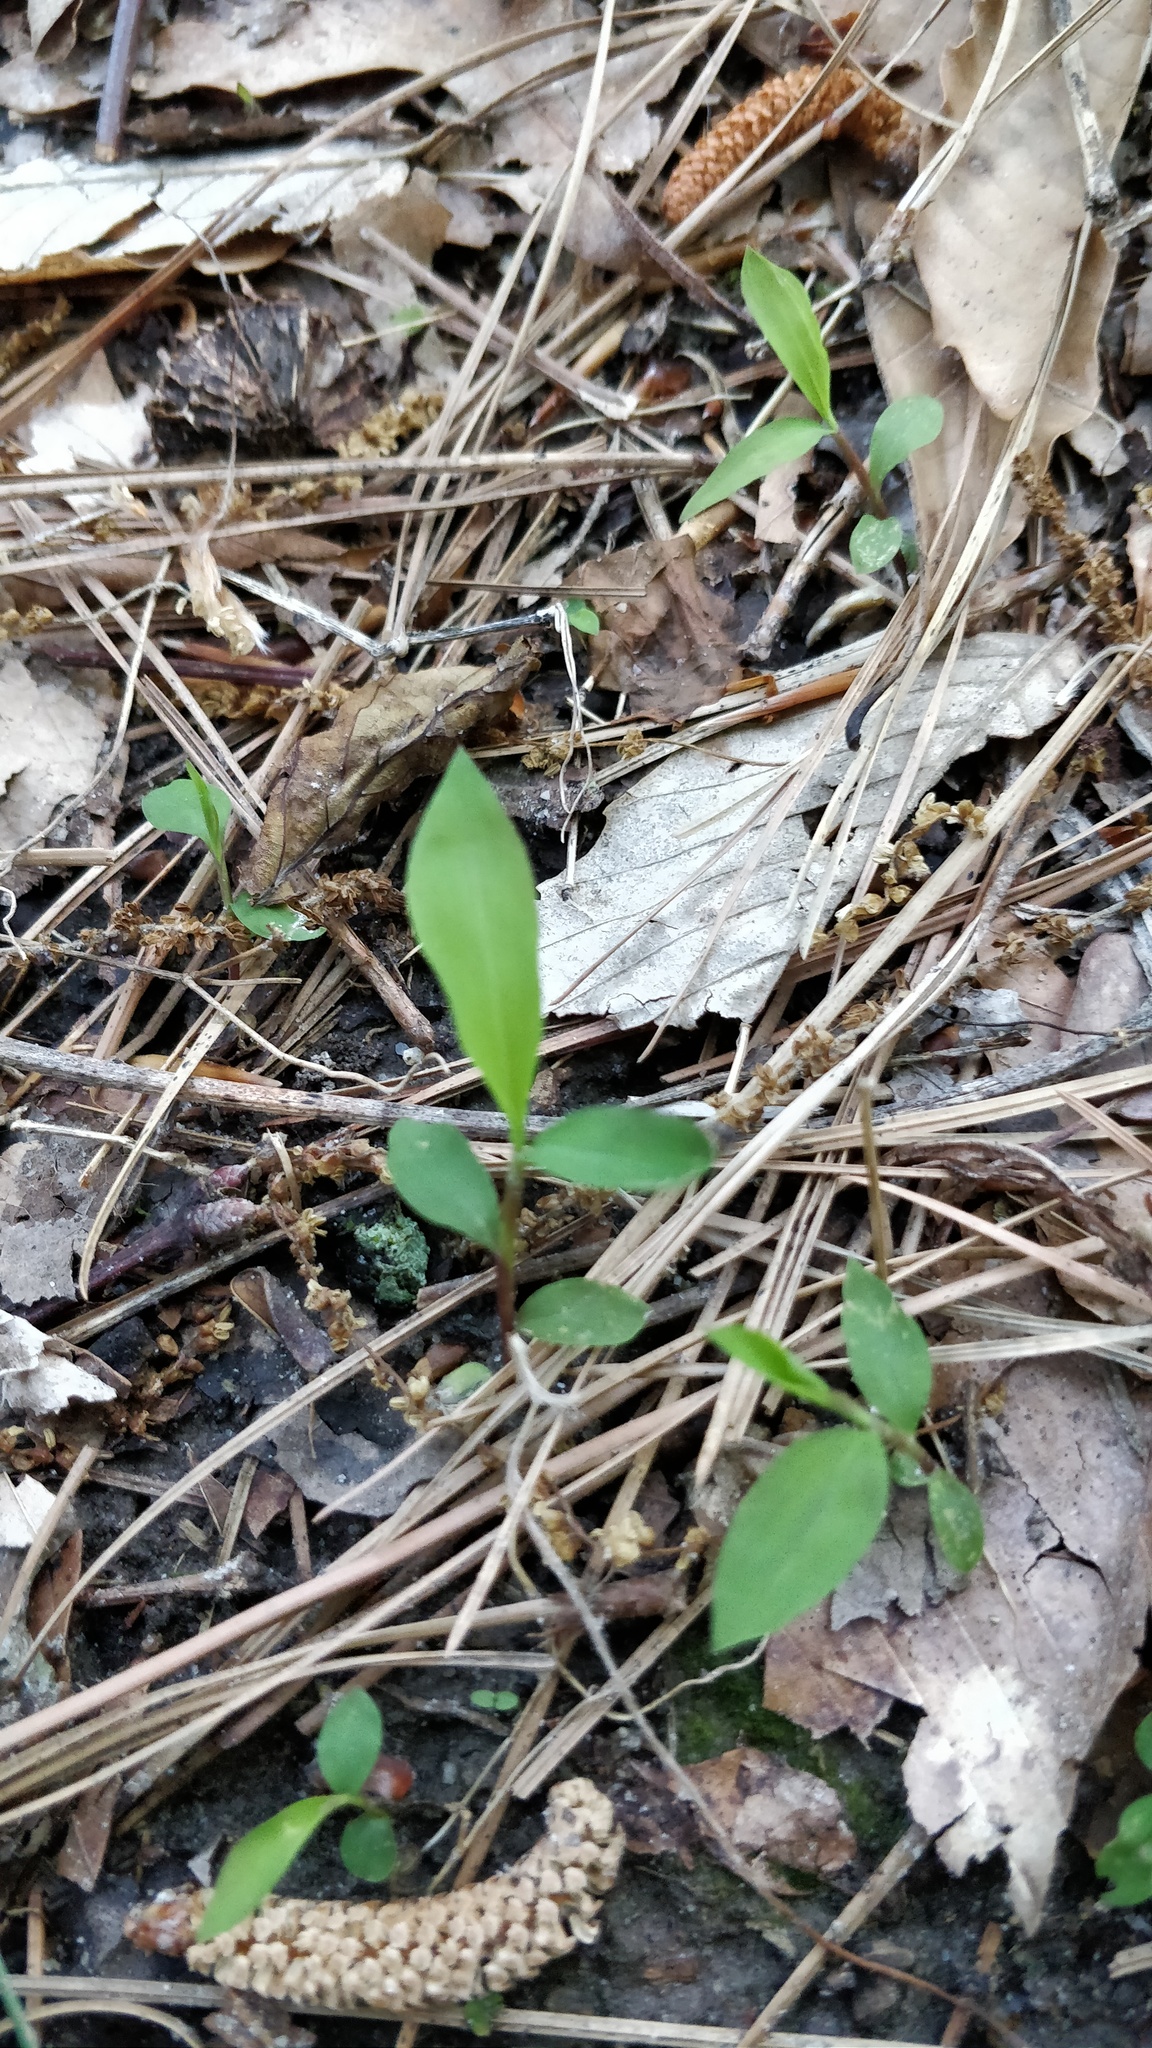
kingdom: Plantae
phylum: Tracheophyta
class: Liliopsida
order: Poales
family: Poaceae
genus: Microstegium
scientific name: Microstegium vimineum
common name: Japanese stiltgrass
